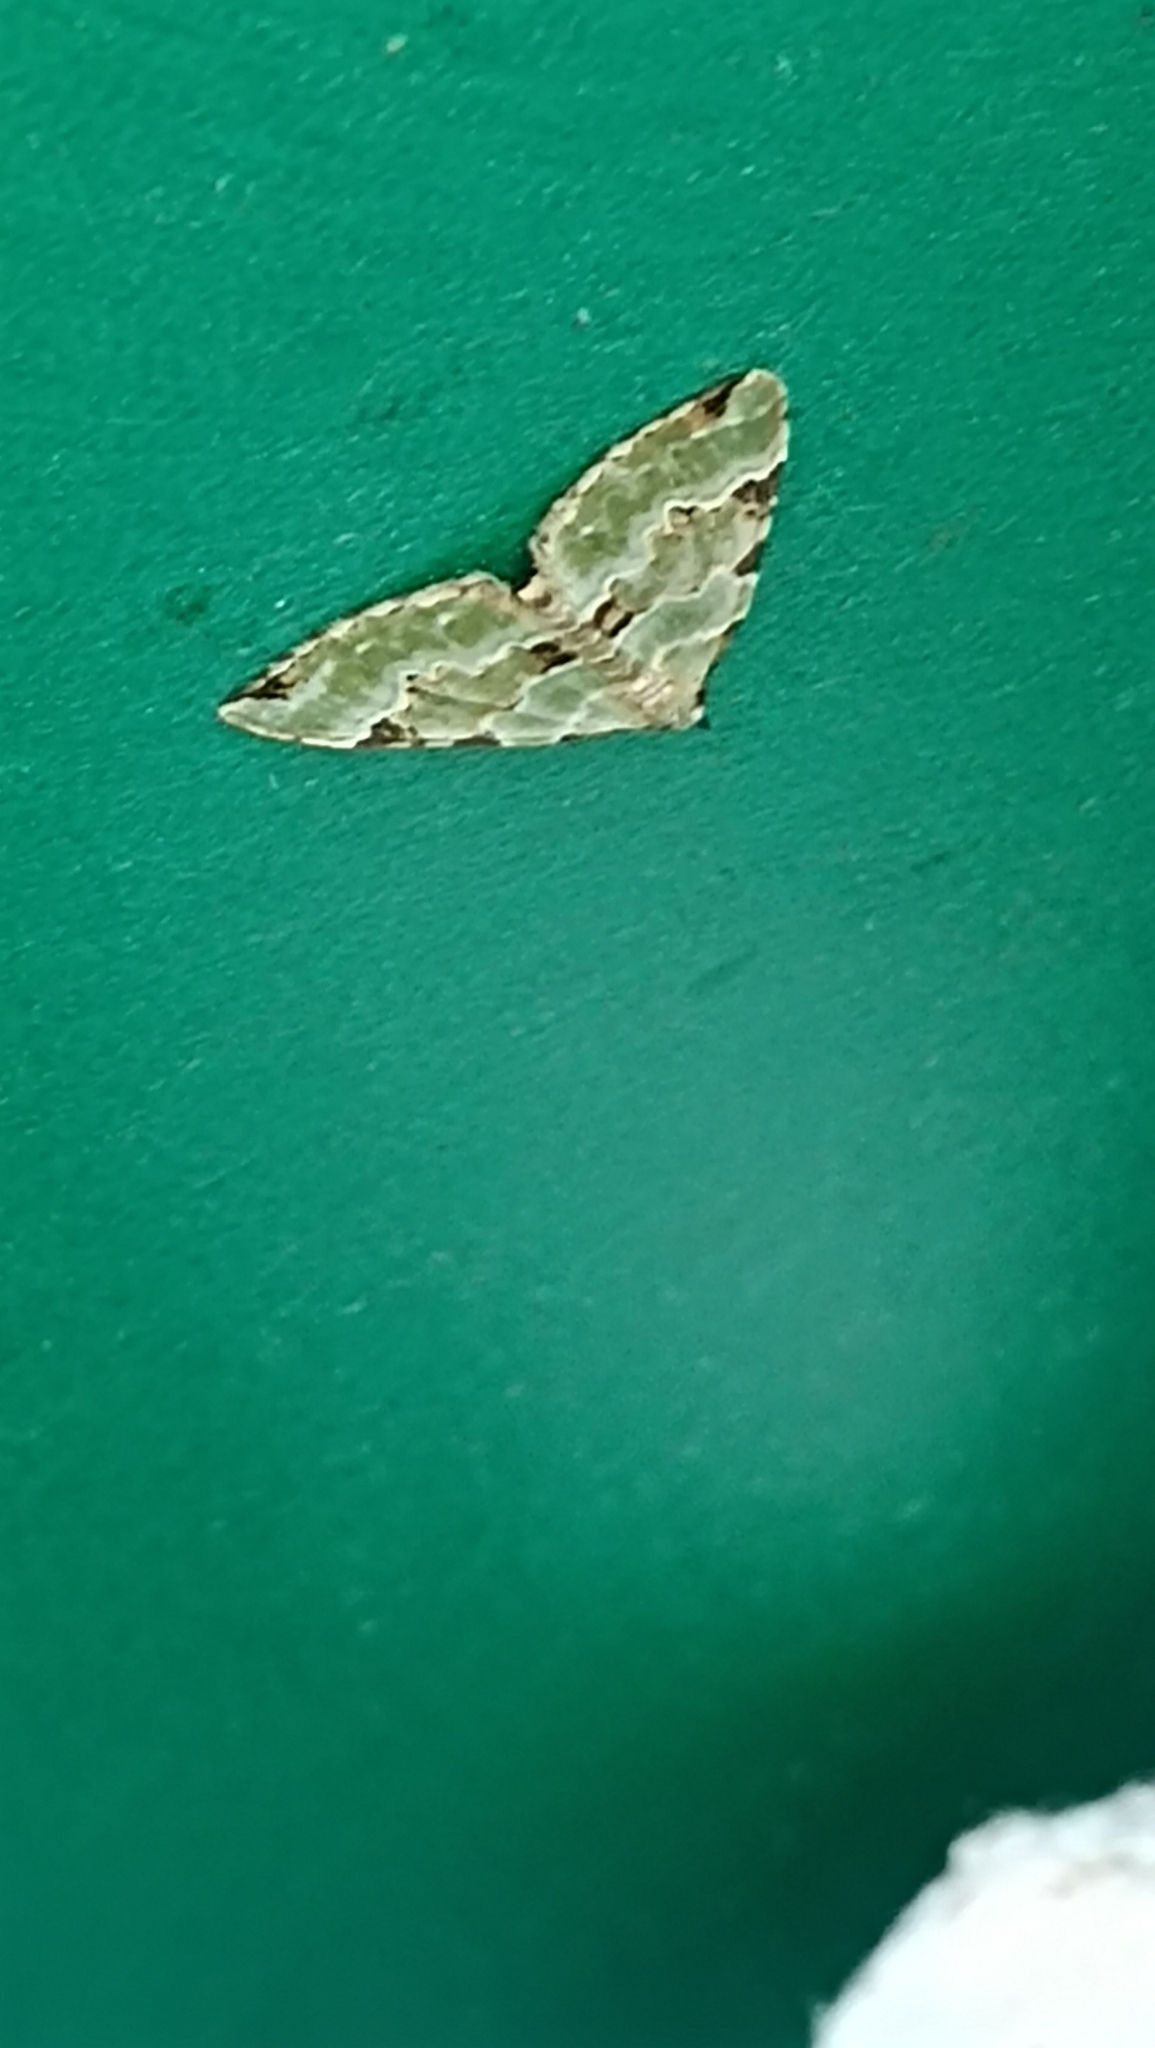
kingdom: Animalia
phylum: Arthropoda
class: Insecta
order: Lepidoptera
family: Geometridae
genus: Colostygia
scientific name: Colostygia pectinataria
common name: Green carpet
